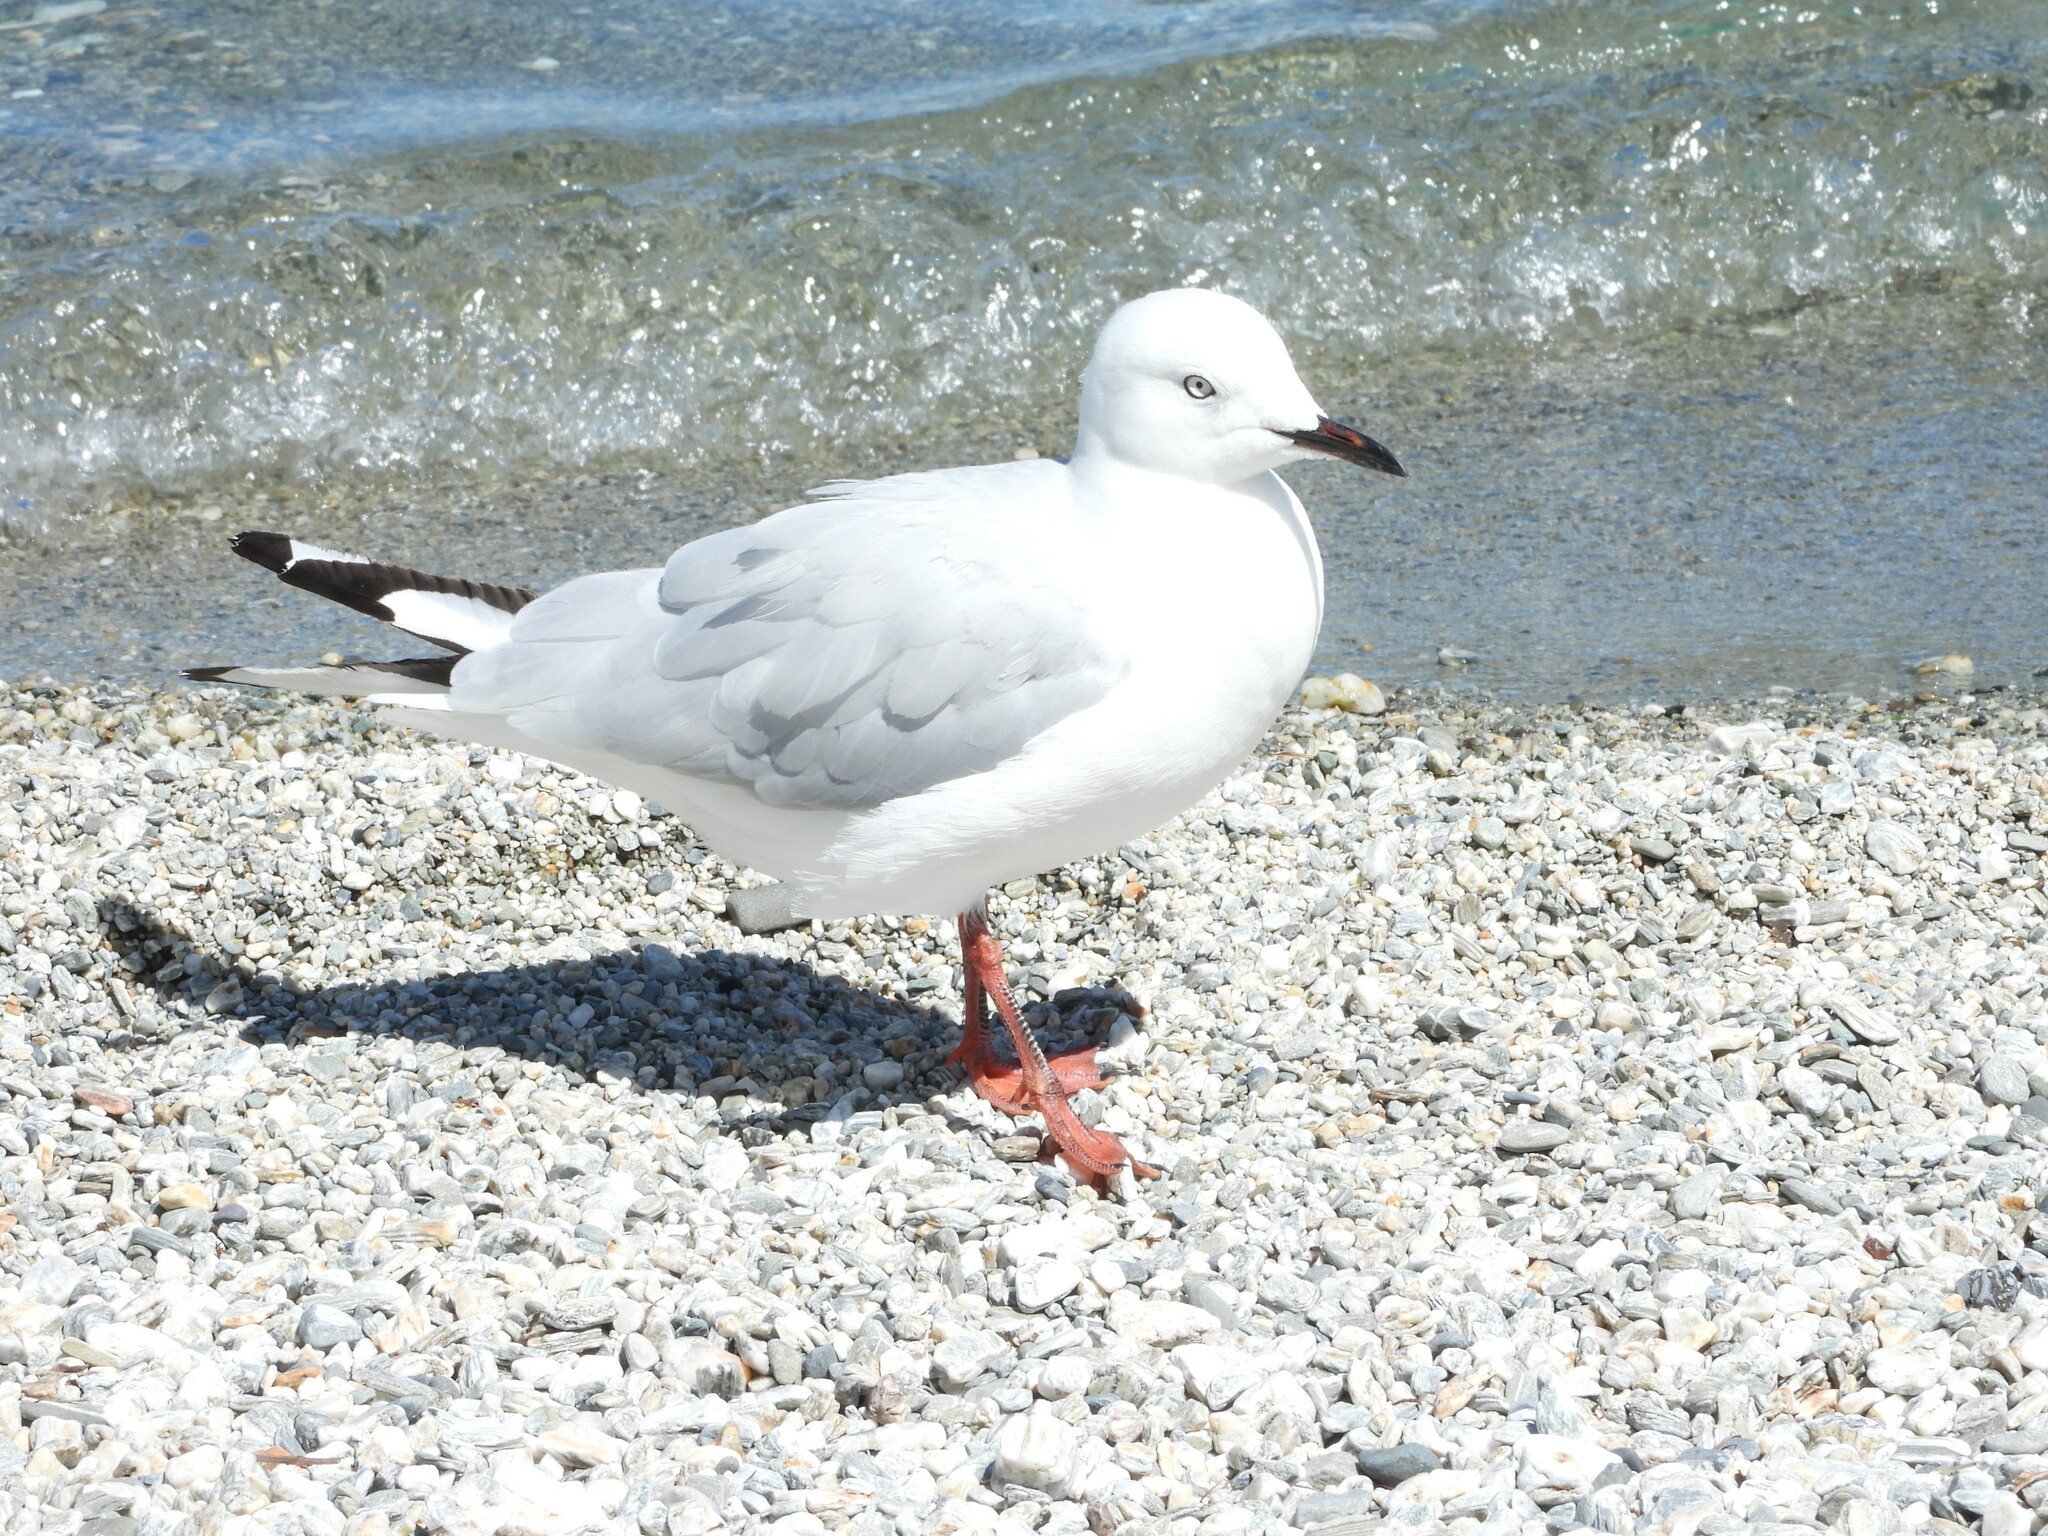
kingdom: Animalia
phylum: Chordata
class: Aves
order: Charadriiformes
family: Laridae
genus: Chroicocephalus
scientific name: Chroicocephalus bulleri
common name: Black-billed gull
